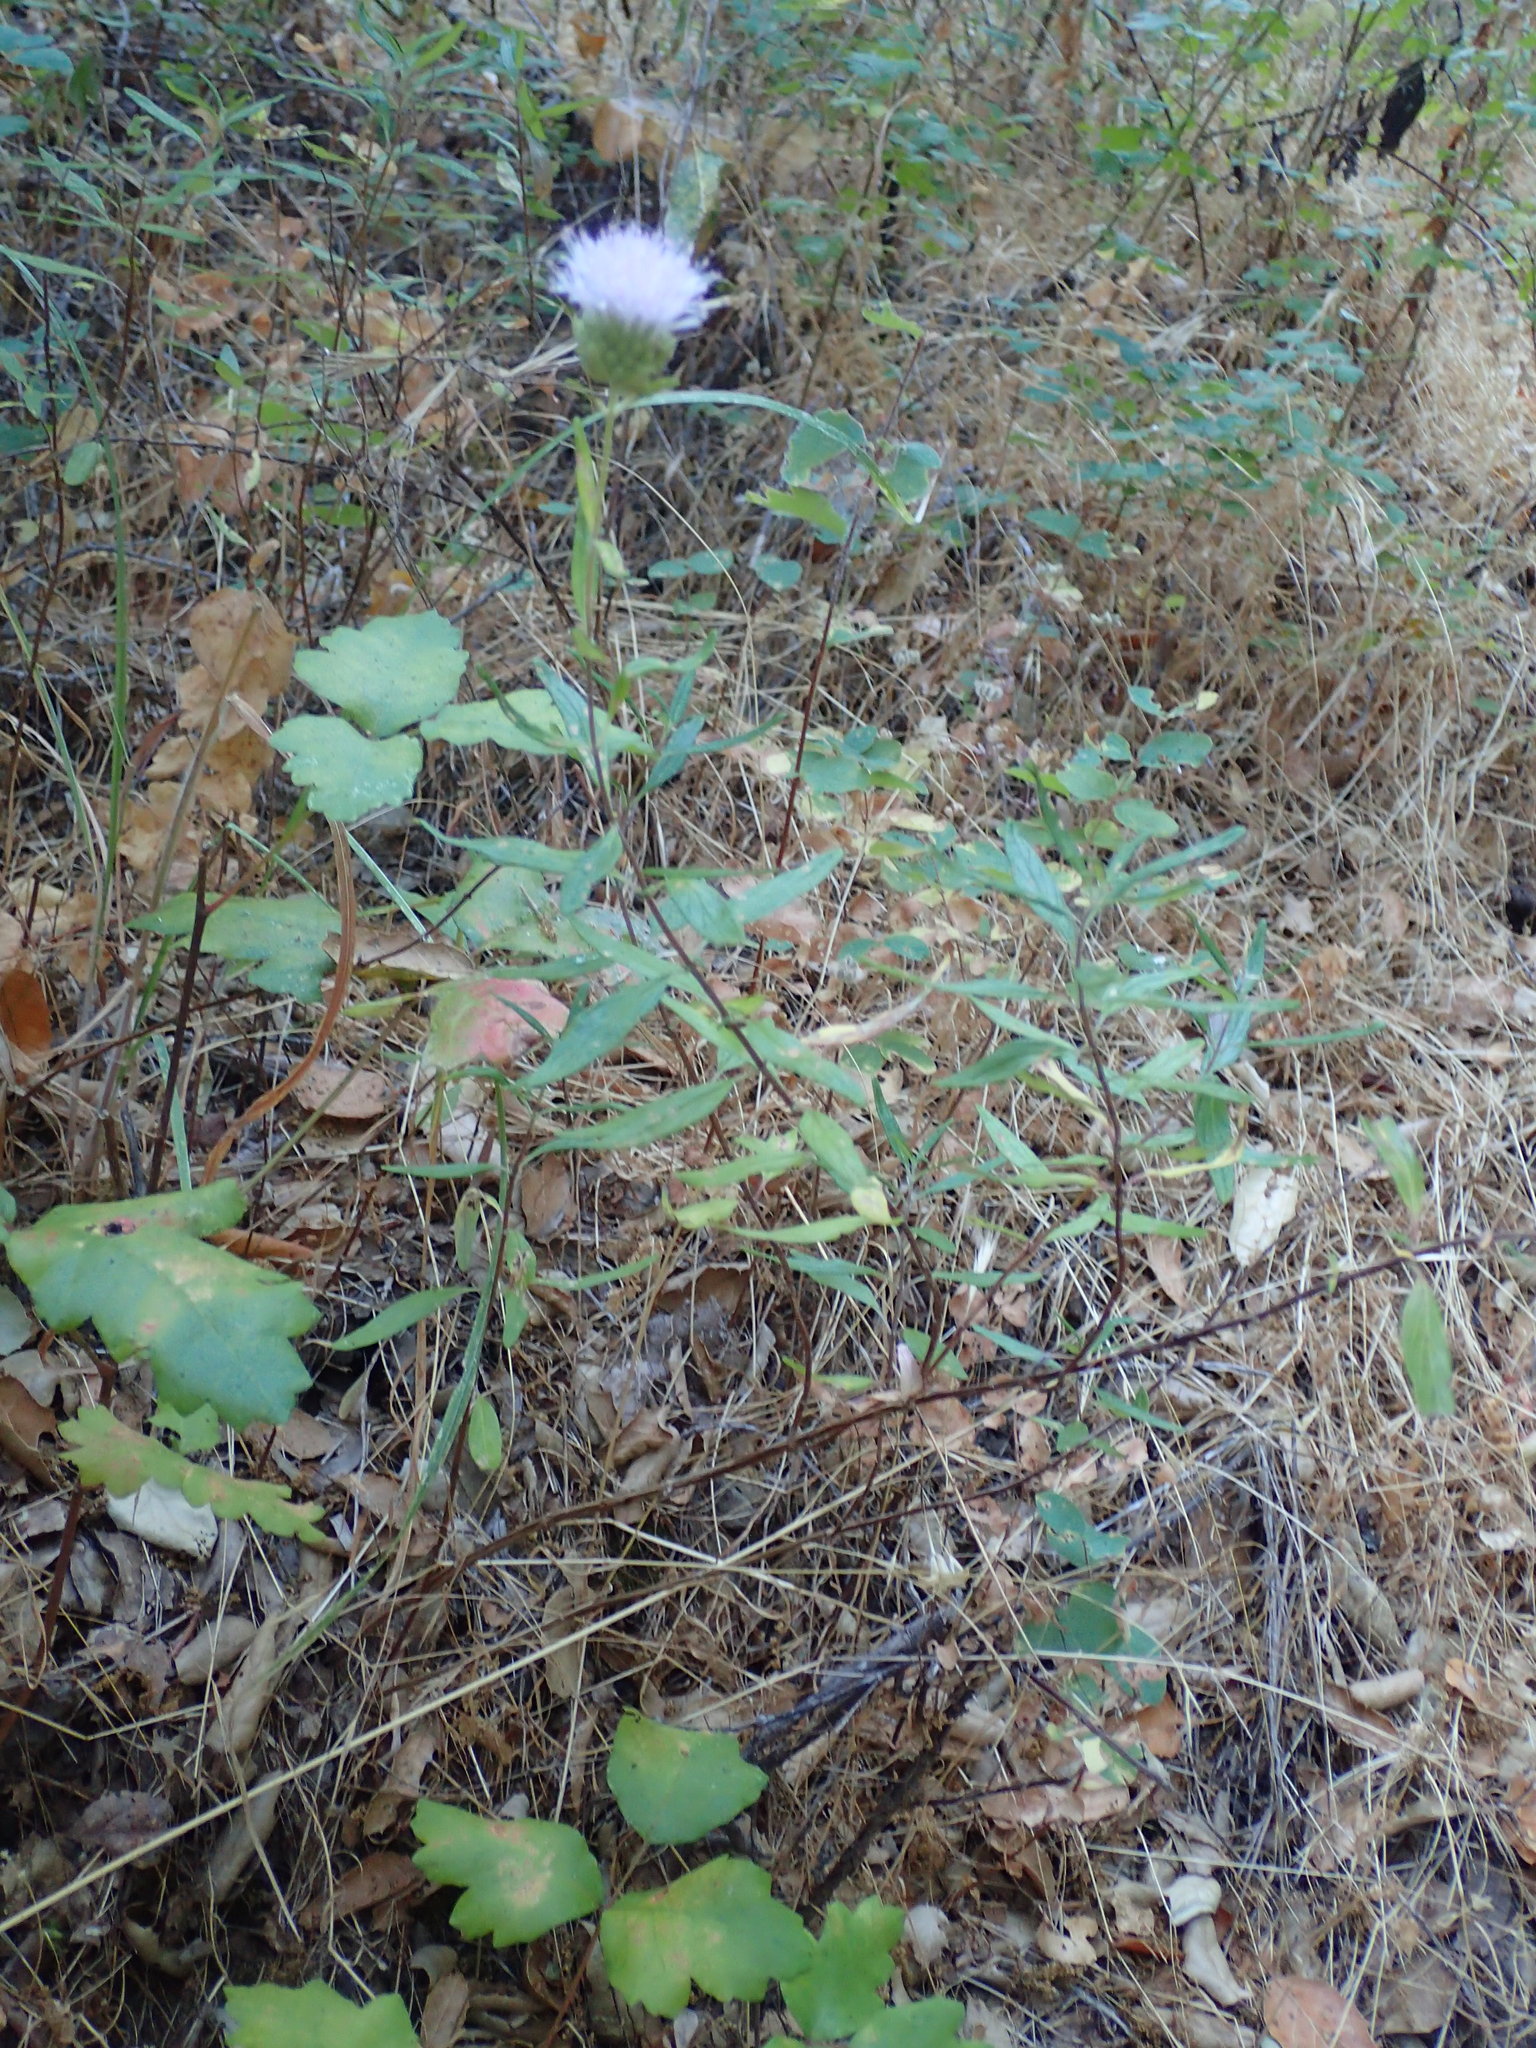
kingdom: Plantae
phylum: Tracheophyta
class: Magnoliopsida
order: Lamiales
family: Lamiaceae
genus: Monardella
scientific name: Monardella hypoleuca
